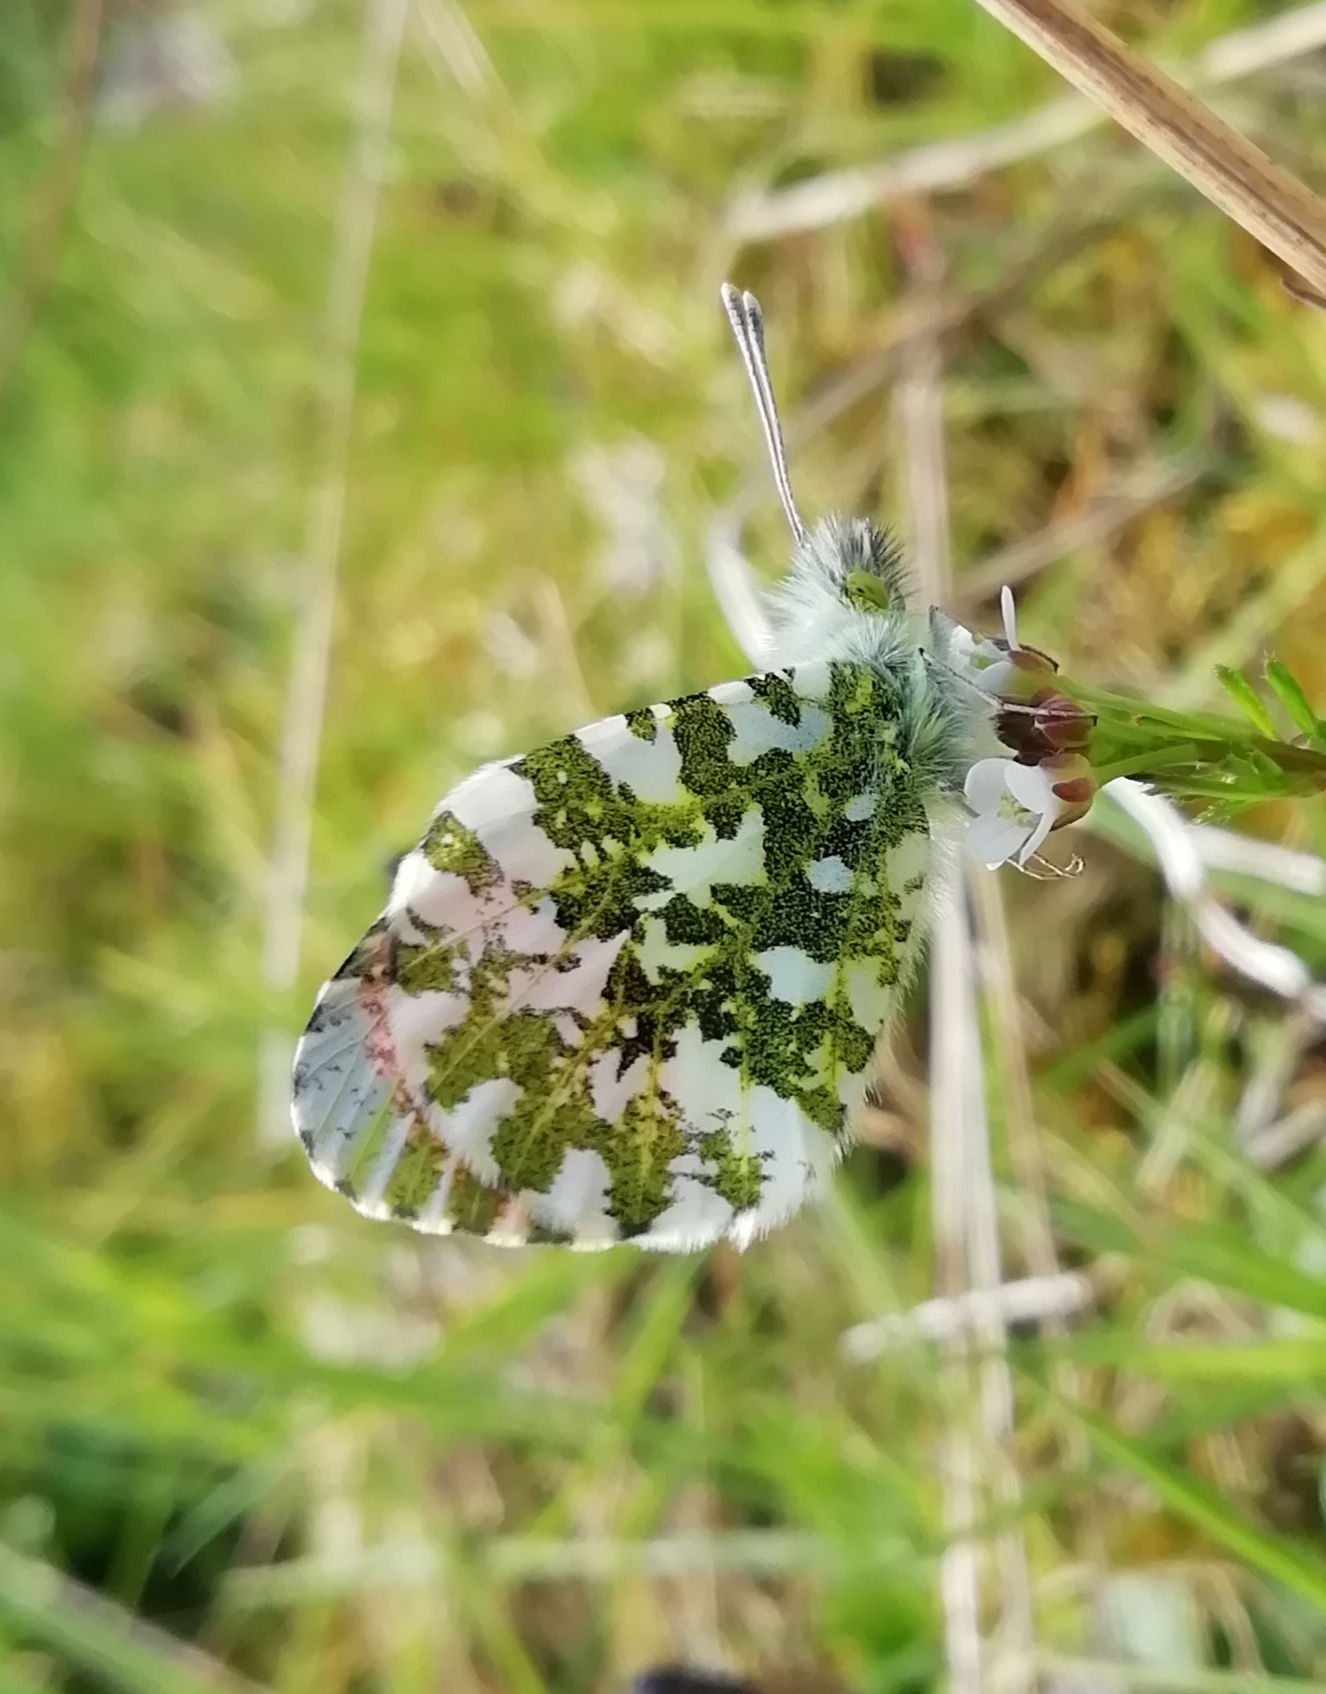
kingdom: Animalia
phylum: Arthropoda
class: Insecta
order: Lepidoptera
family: Pieridae
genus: Anthocharis
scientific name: Anthocharis cardamines
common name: Orange-tip
